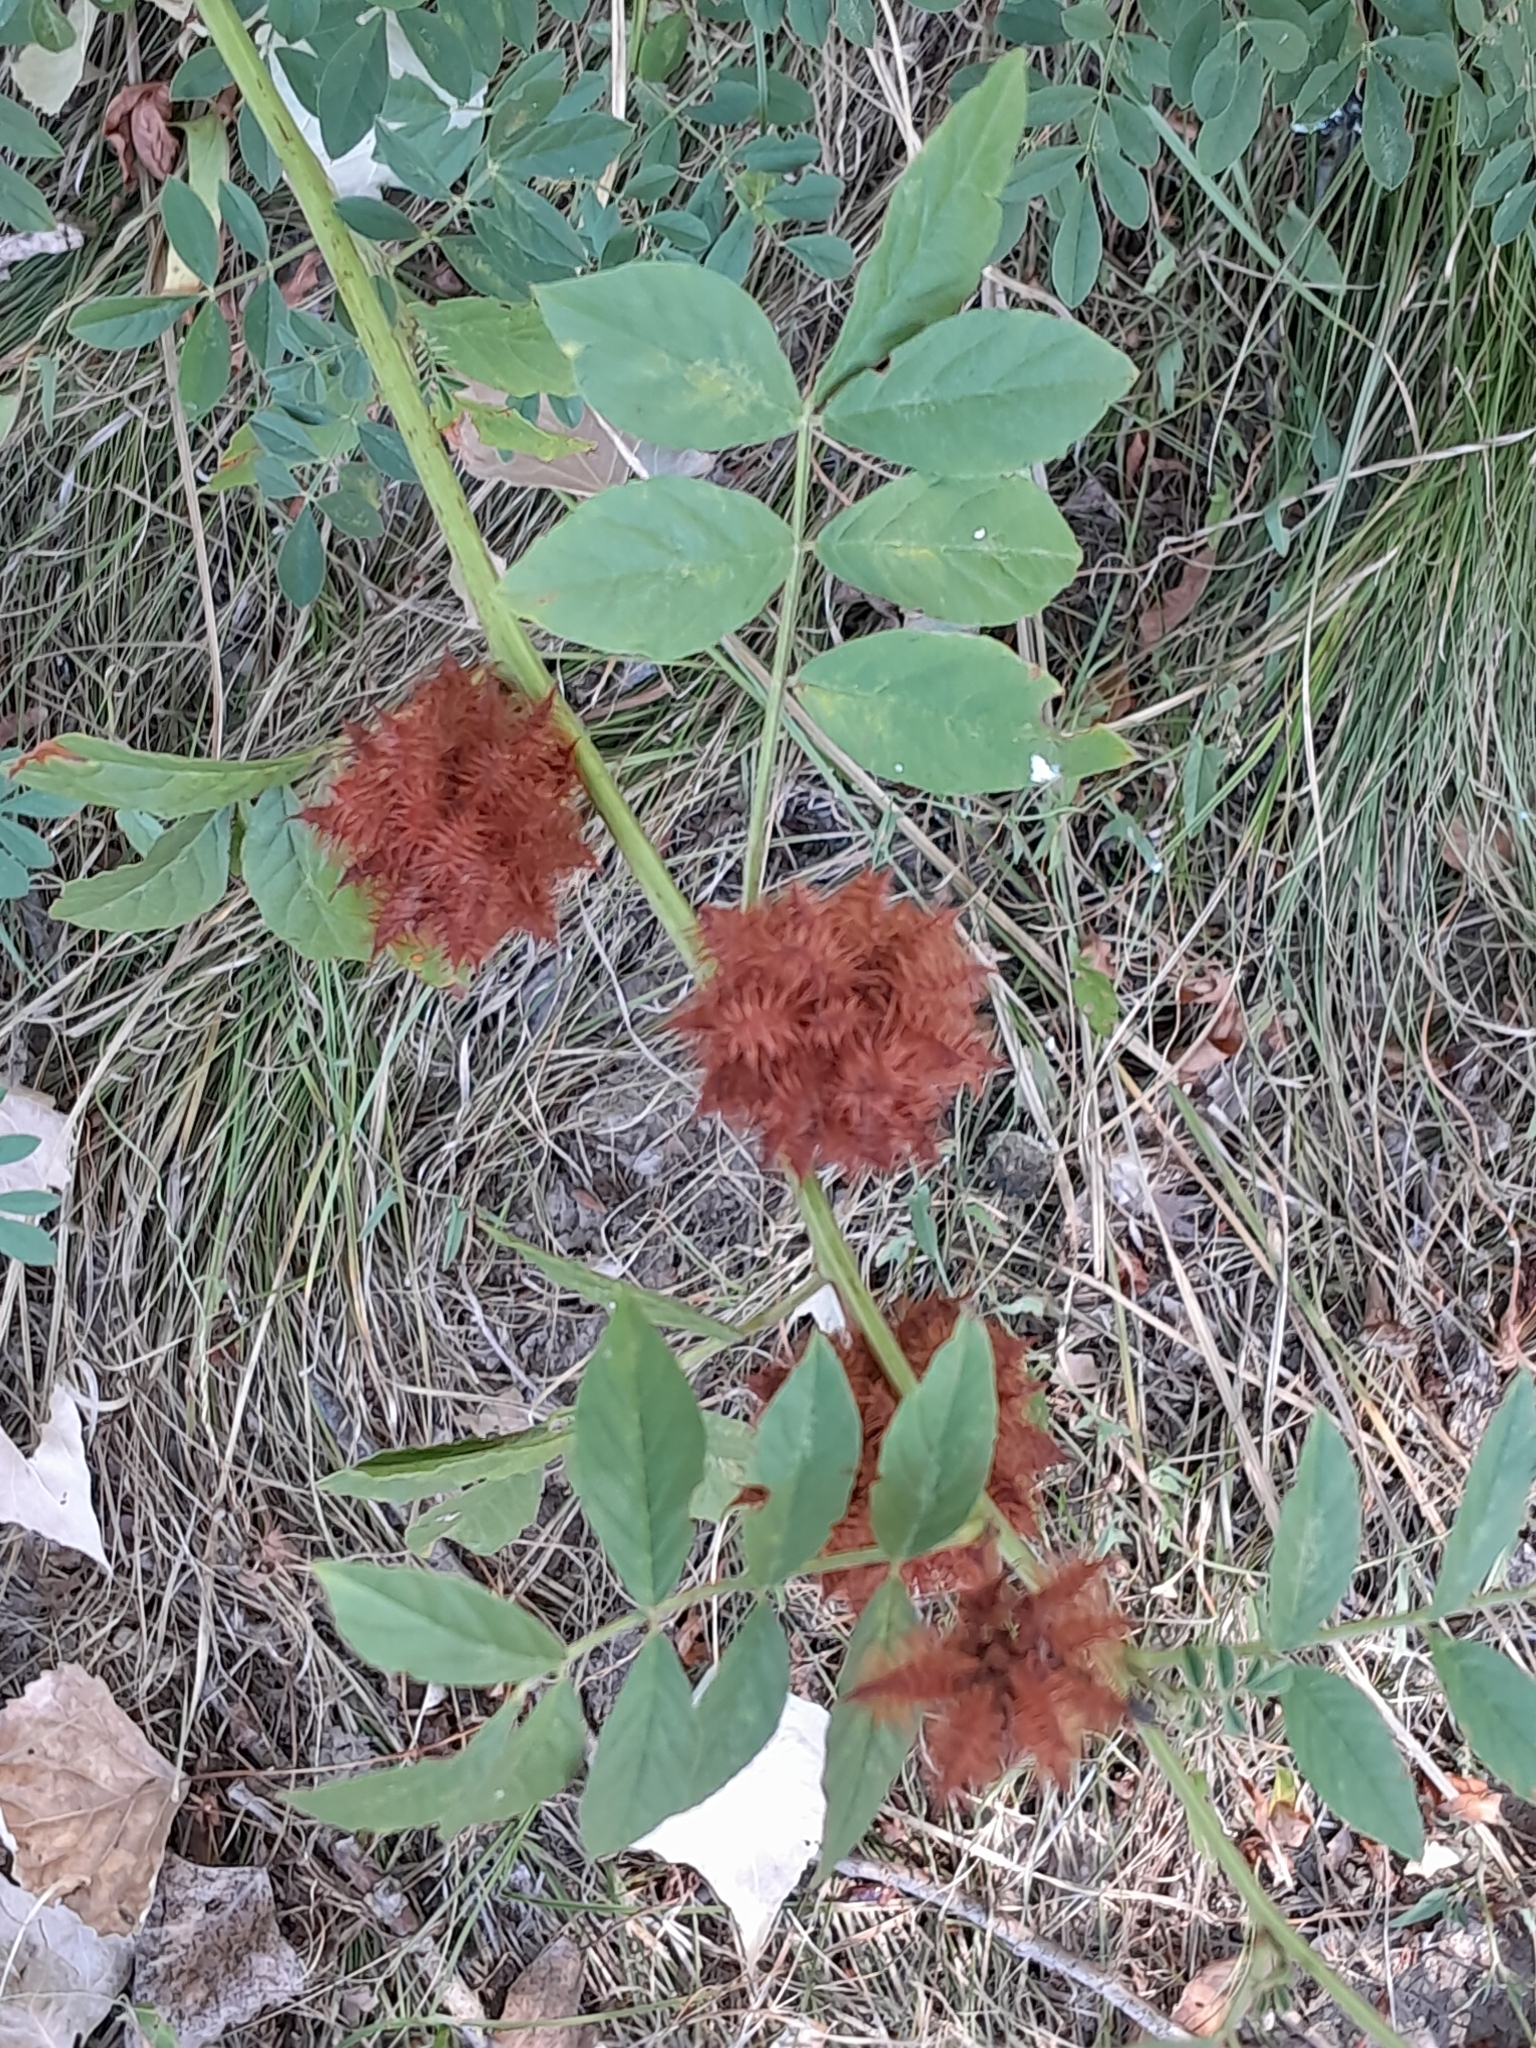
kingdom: Plantae
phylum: Tracheophyta
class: Magnoliopsida
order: Fabales
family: Fabaceae
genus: Glycyrrhiza
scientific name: Glycyrrhiza echinata
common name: German liquorice
